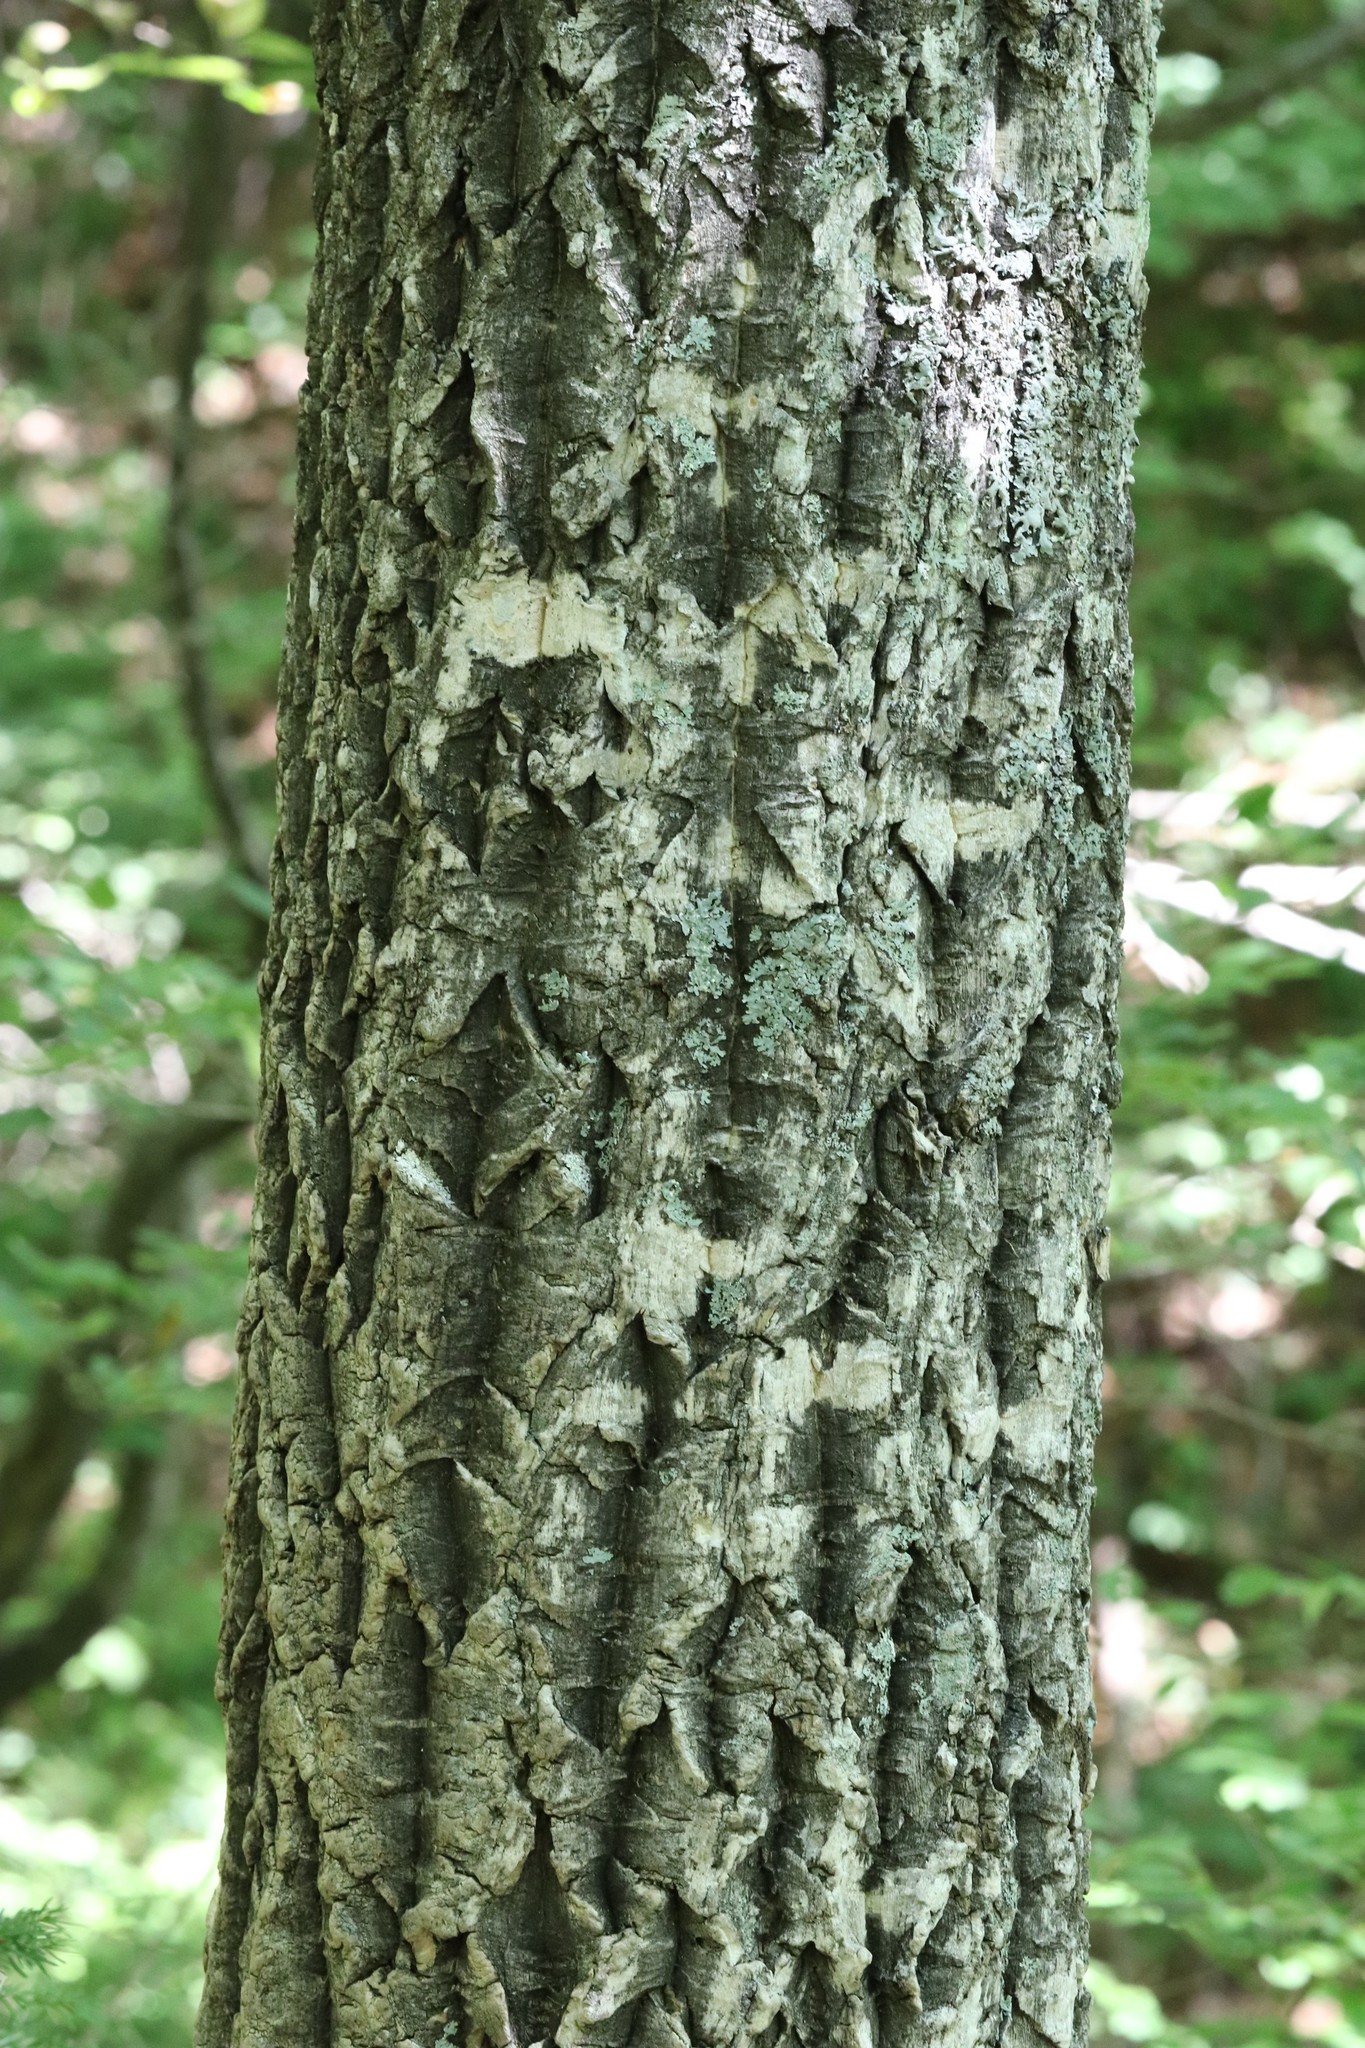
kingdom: Plantae
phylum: Tracheophyta
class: Magnoliopsida
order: Sapindales
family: Rutaceae
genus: Phellodendron
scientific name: Phellodendron amurense
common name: Amur corktree
